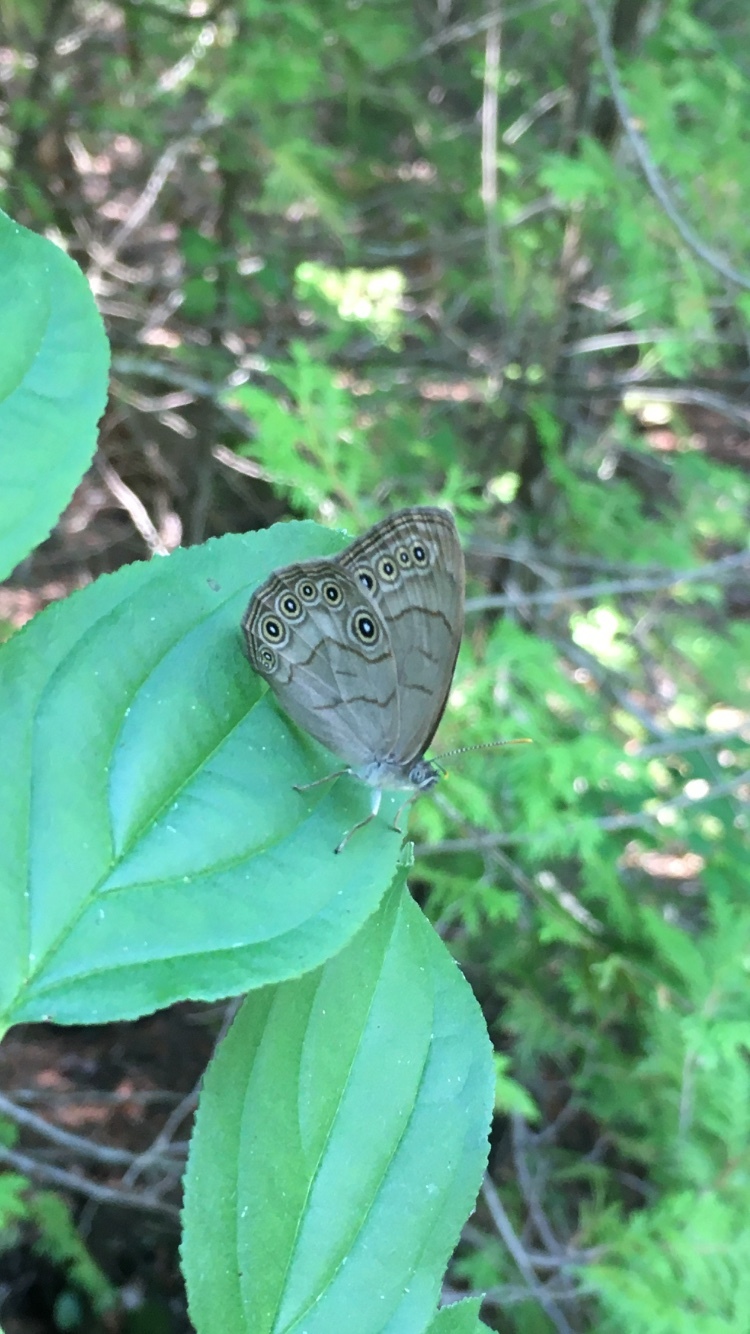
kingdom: Animalia
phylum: Arthropoda
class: Insecta
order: Lepidoptera
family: Nymphalidae
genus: Lethe
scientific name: Lethe eurydice
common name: Eyed brown
